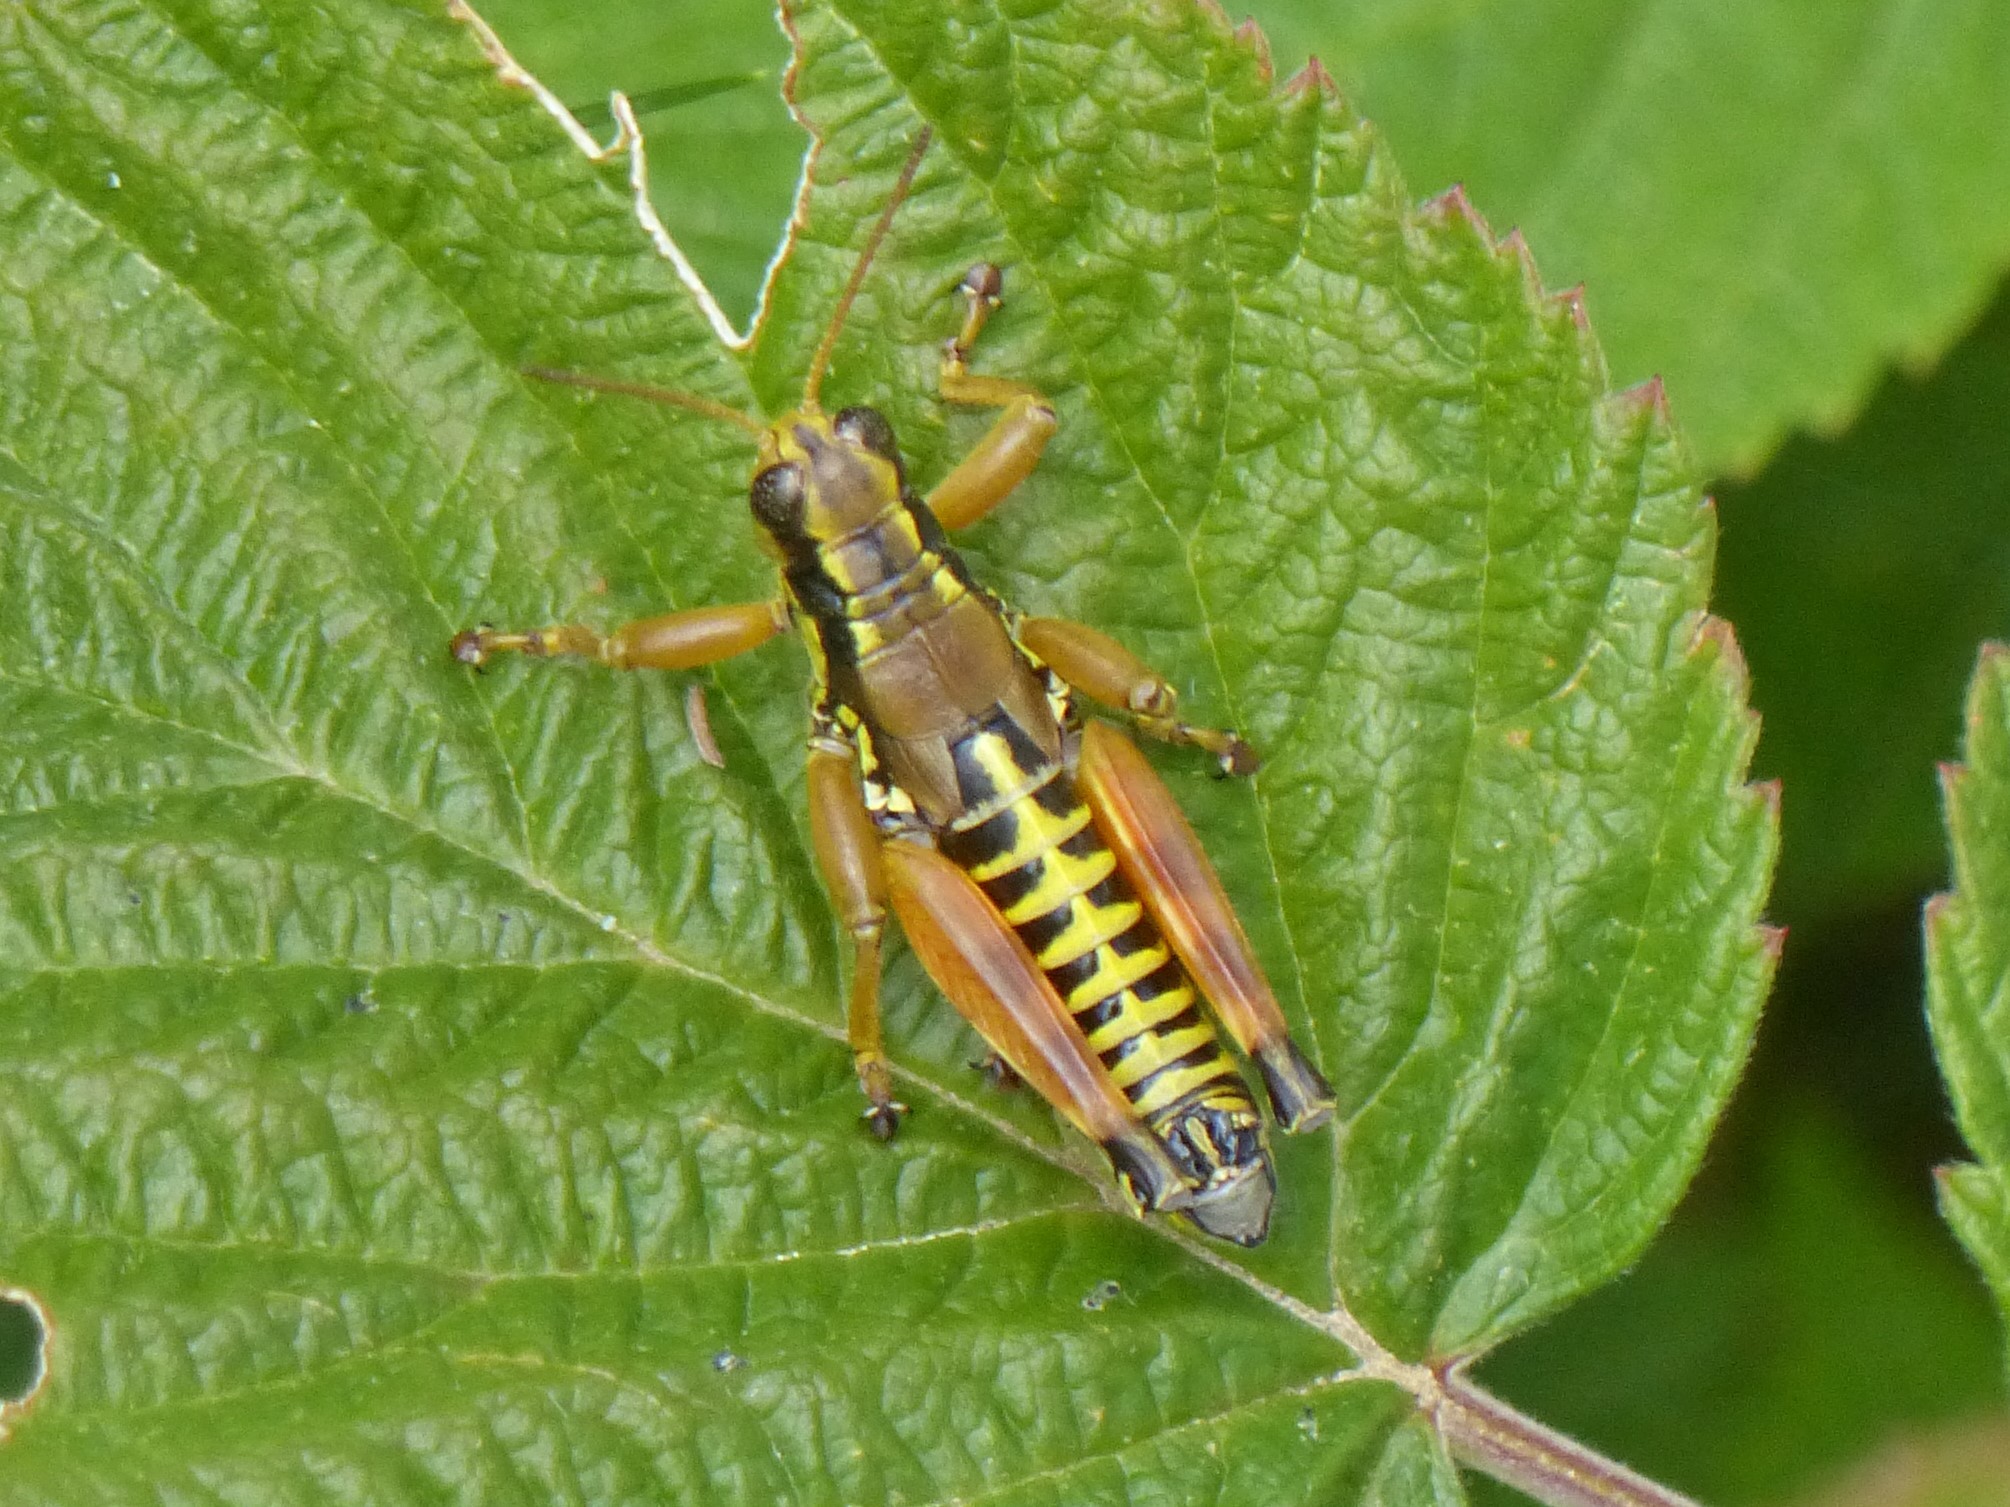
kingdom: Animalia
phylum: Arthropoda
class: Insecta
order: Orthoptera
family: Acrididae
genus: Podisma
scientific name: Podisma pedestris
